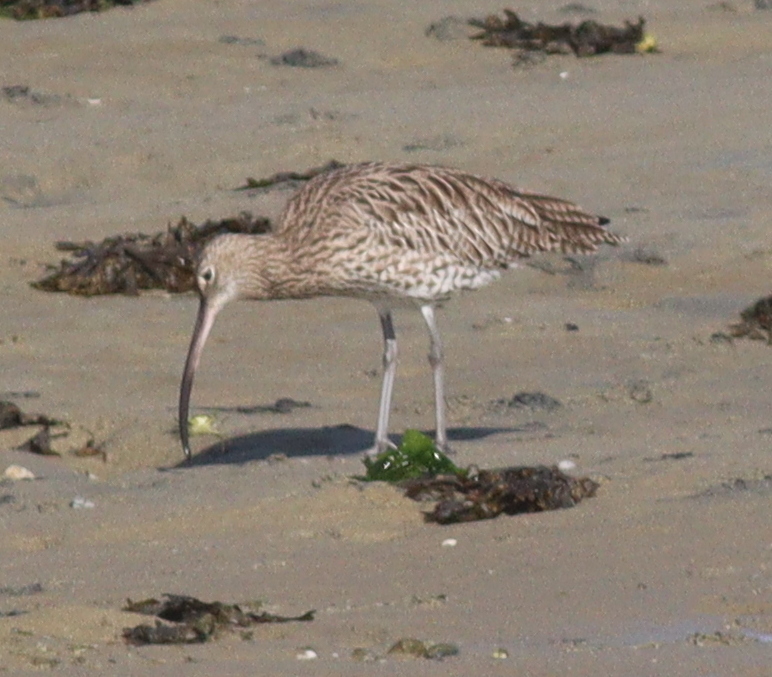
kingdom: Animalia
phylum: Chordata
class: Aves
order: Charadriiformes
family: Scolopacidae
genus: Numenius
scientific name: Numenius arquata
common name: Eurasian curlew
